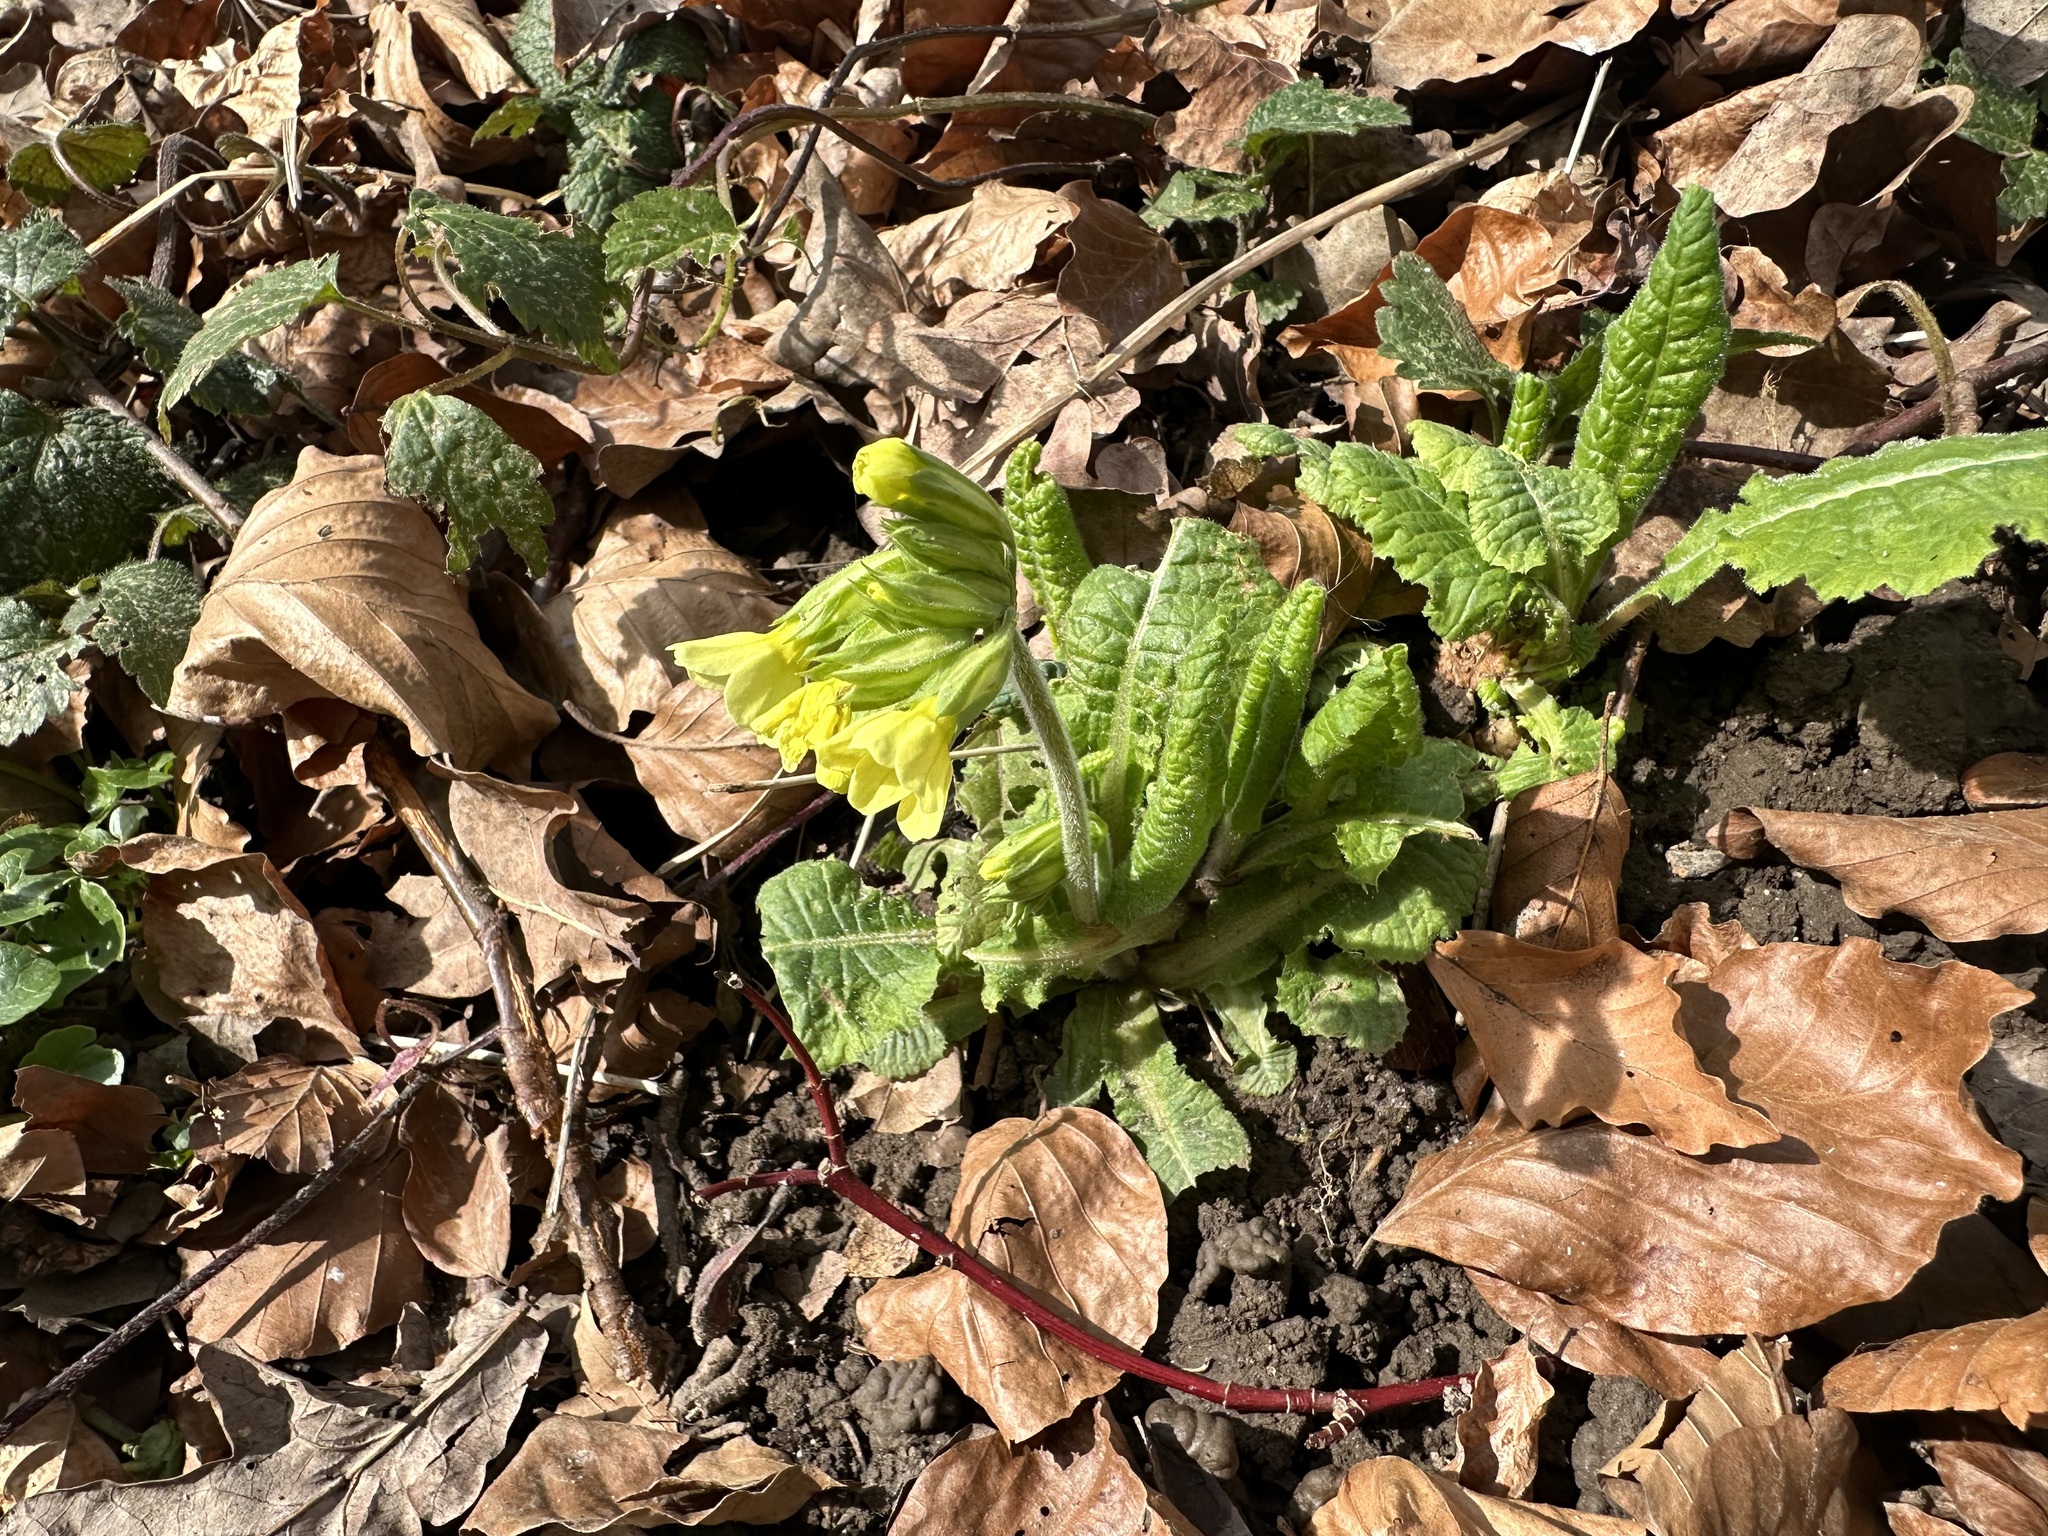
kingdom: Plantae
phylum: Tracheophyta
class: Magnoliopsida
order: Ericales
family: Primulaceae
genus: Primula
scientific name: Primula elatior
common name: Oxlip
